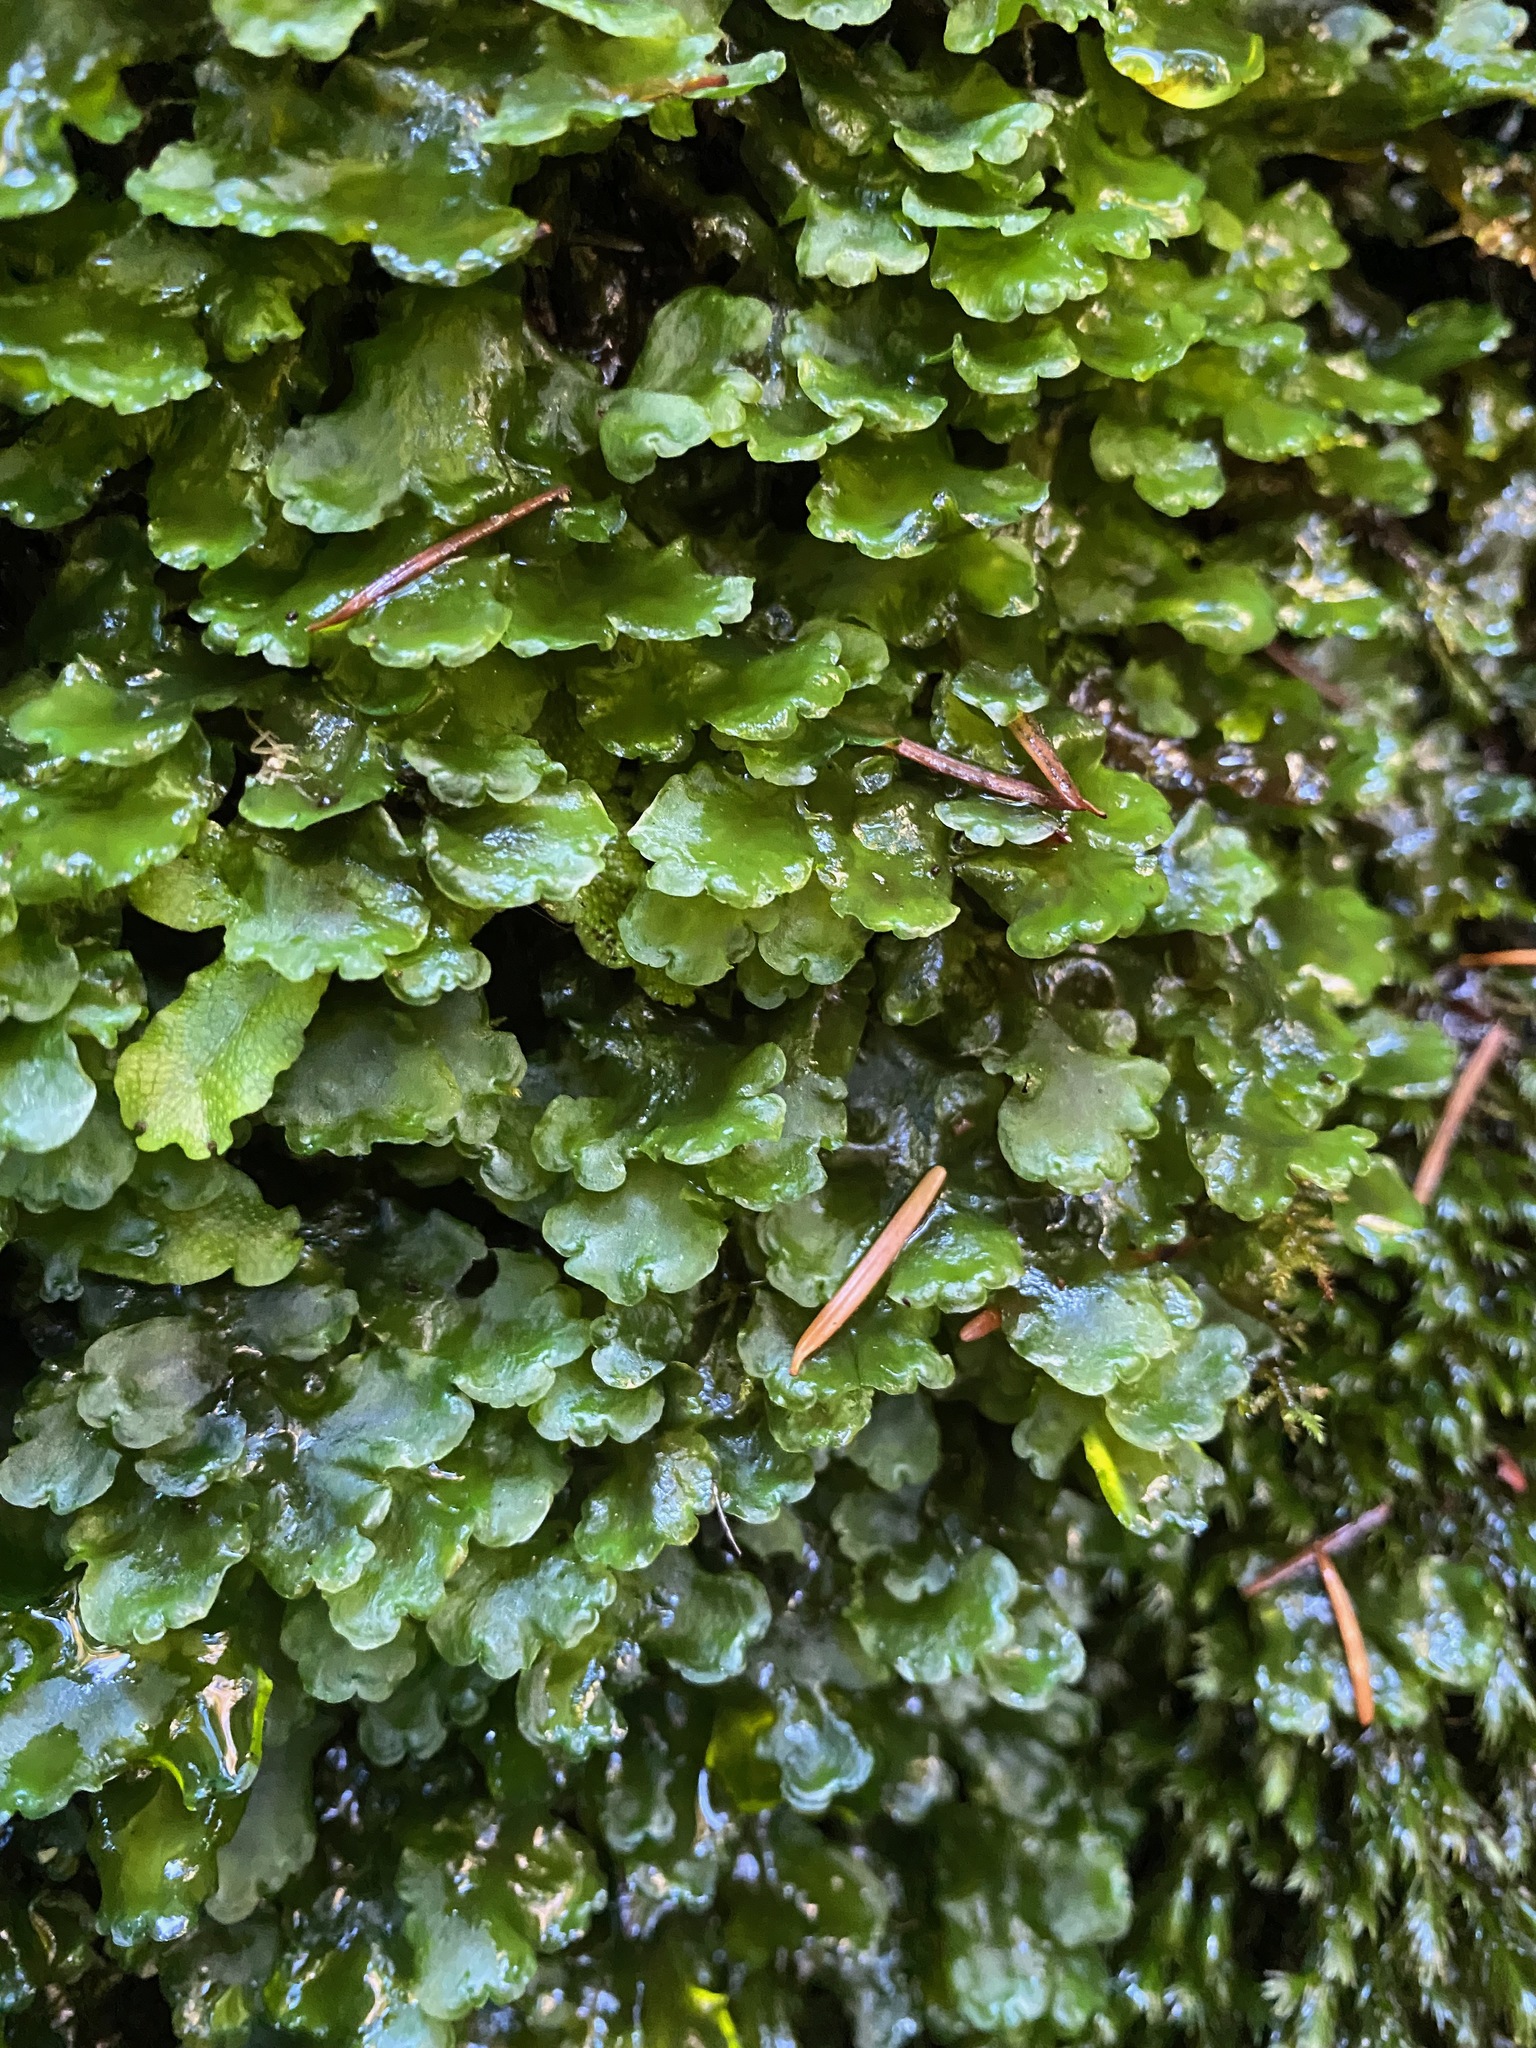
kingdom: Plantae
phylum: Marchantiophyta
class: Jungermanniopsida
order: Pelliales
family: Pelliaceae
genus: Pellia
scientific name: Pellia neesiana
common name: Nees  pellia
